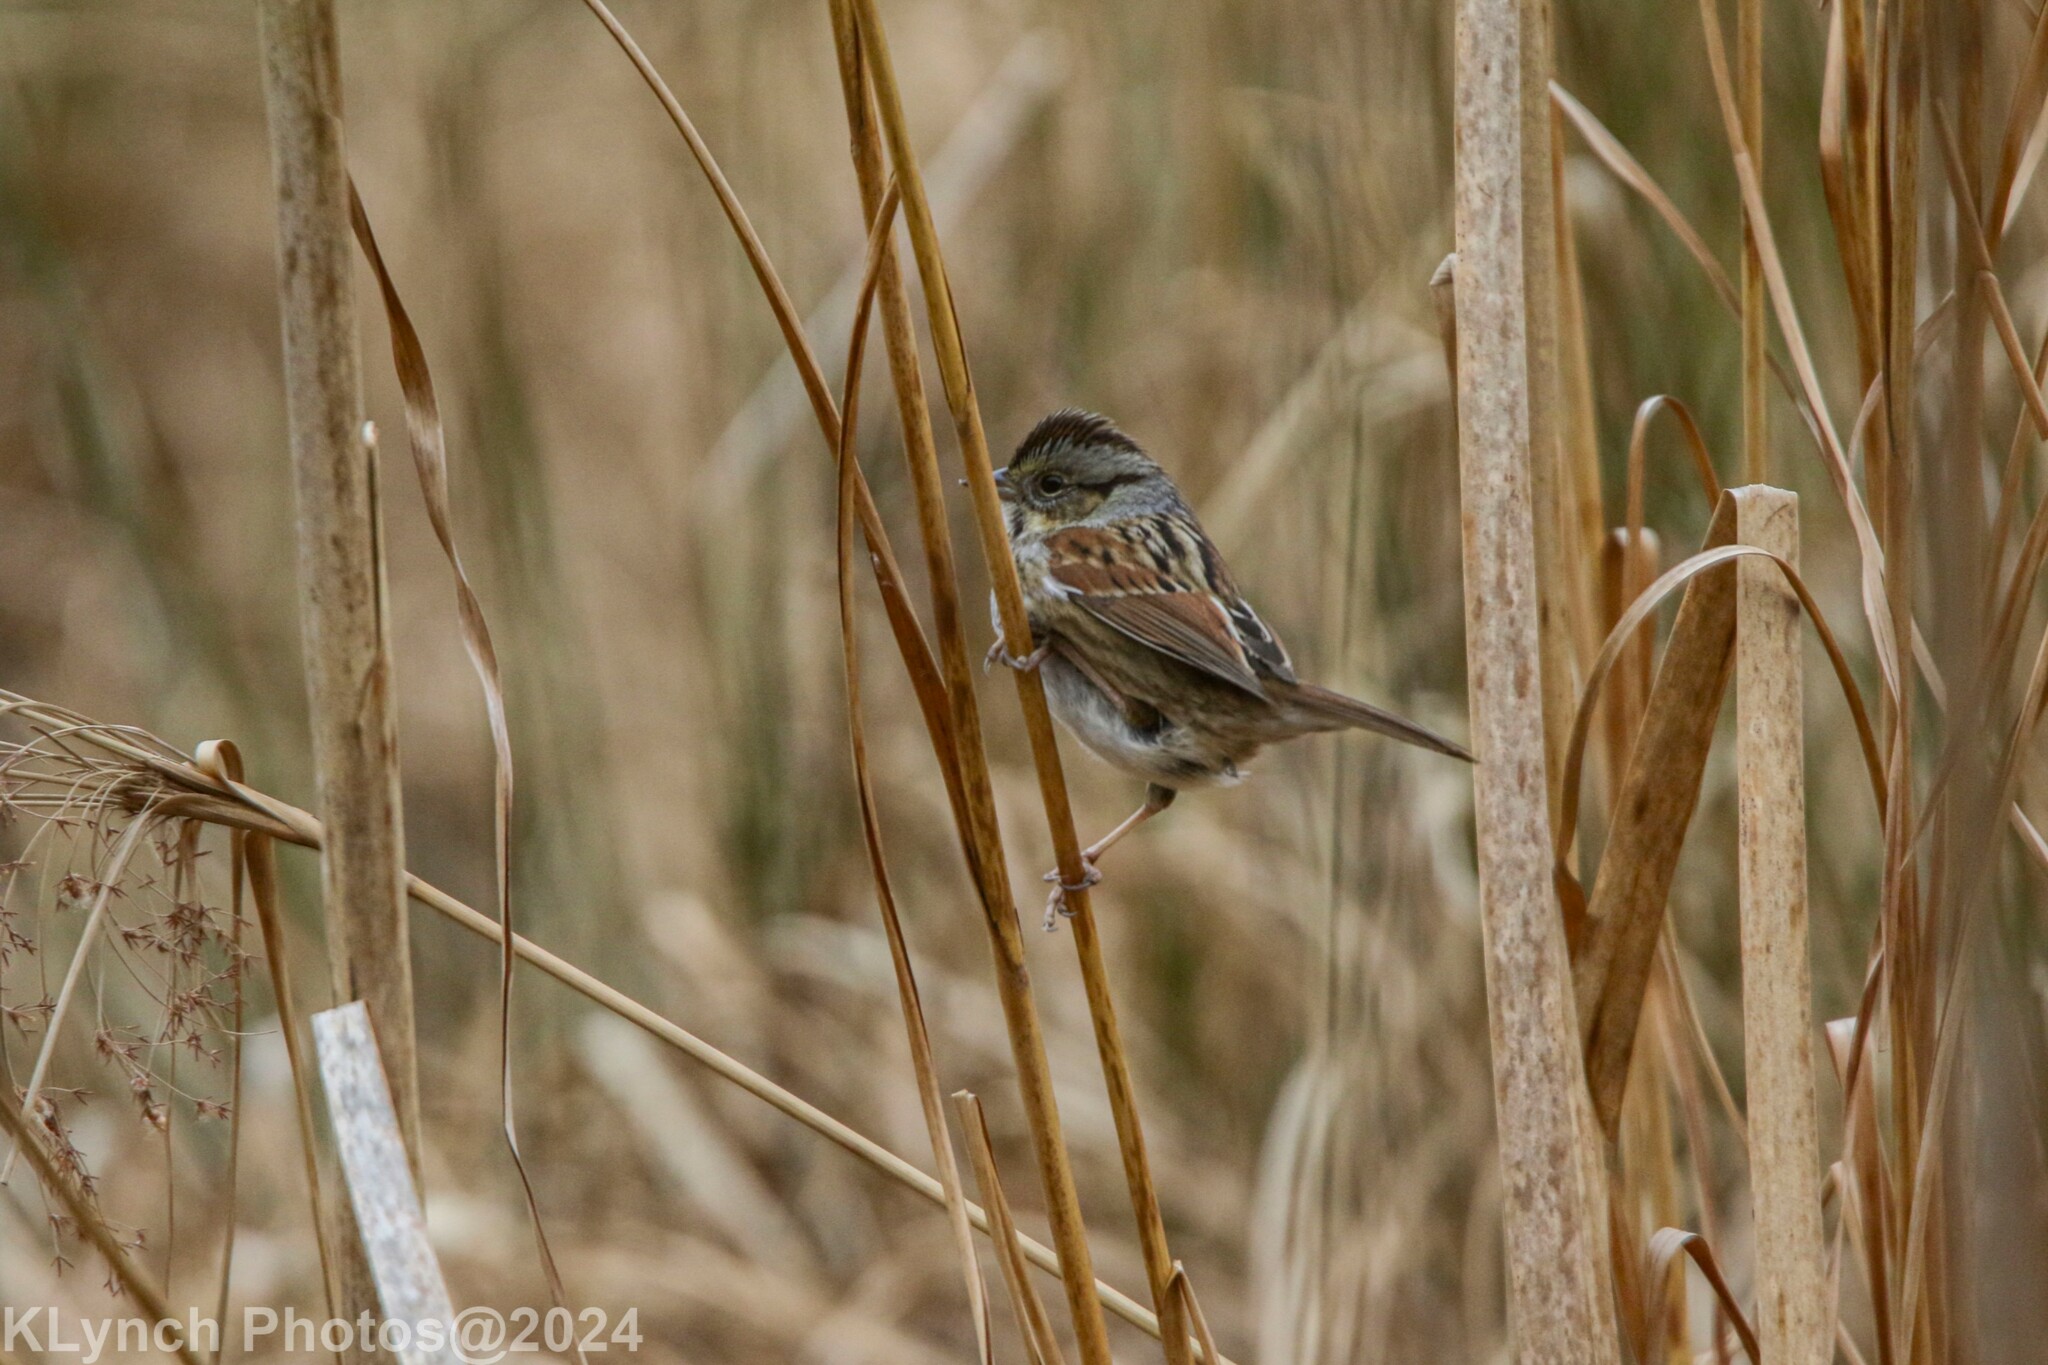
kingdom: Animalia
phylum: Chordata
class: Aves
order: Passeriformes
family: Passerellidae
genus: Melospiza
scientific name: Melospiza georgiana
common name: Swamp sparrow
